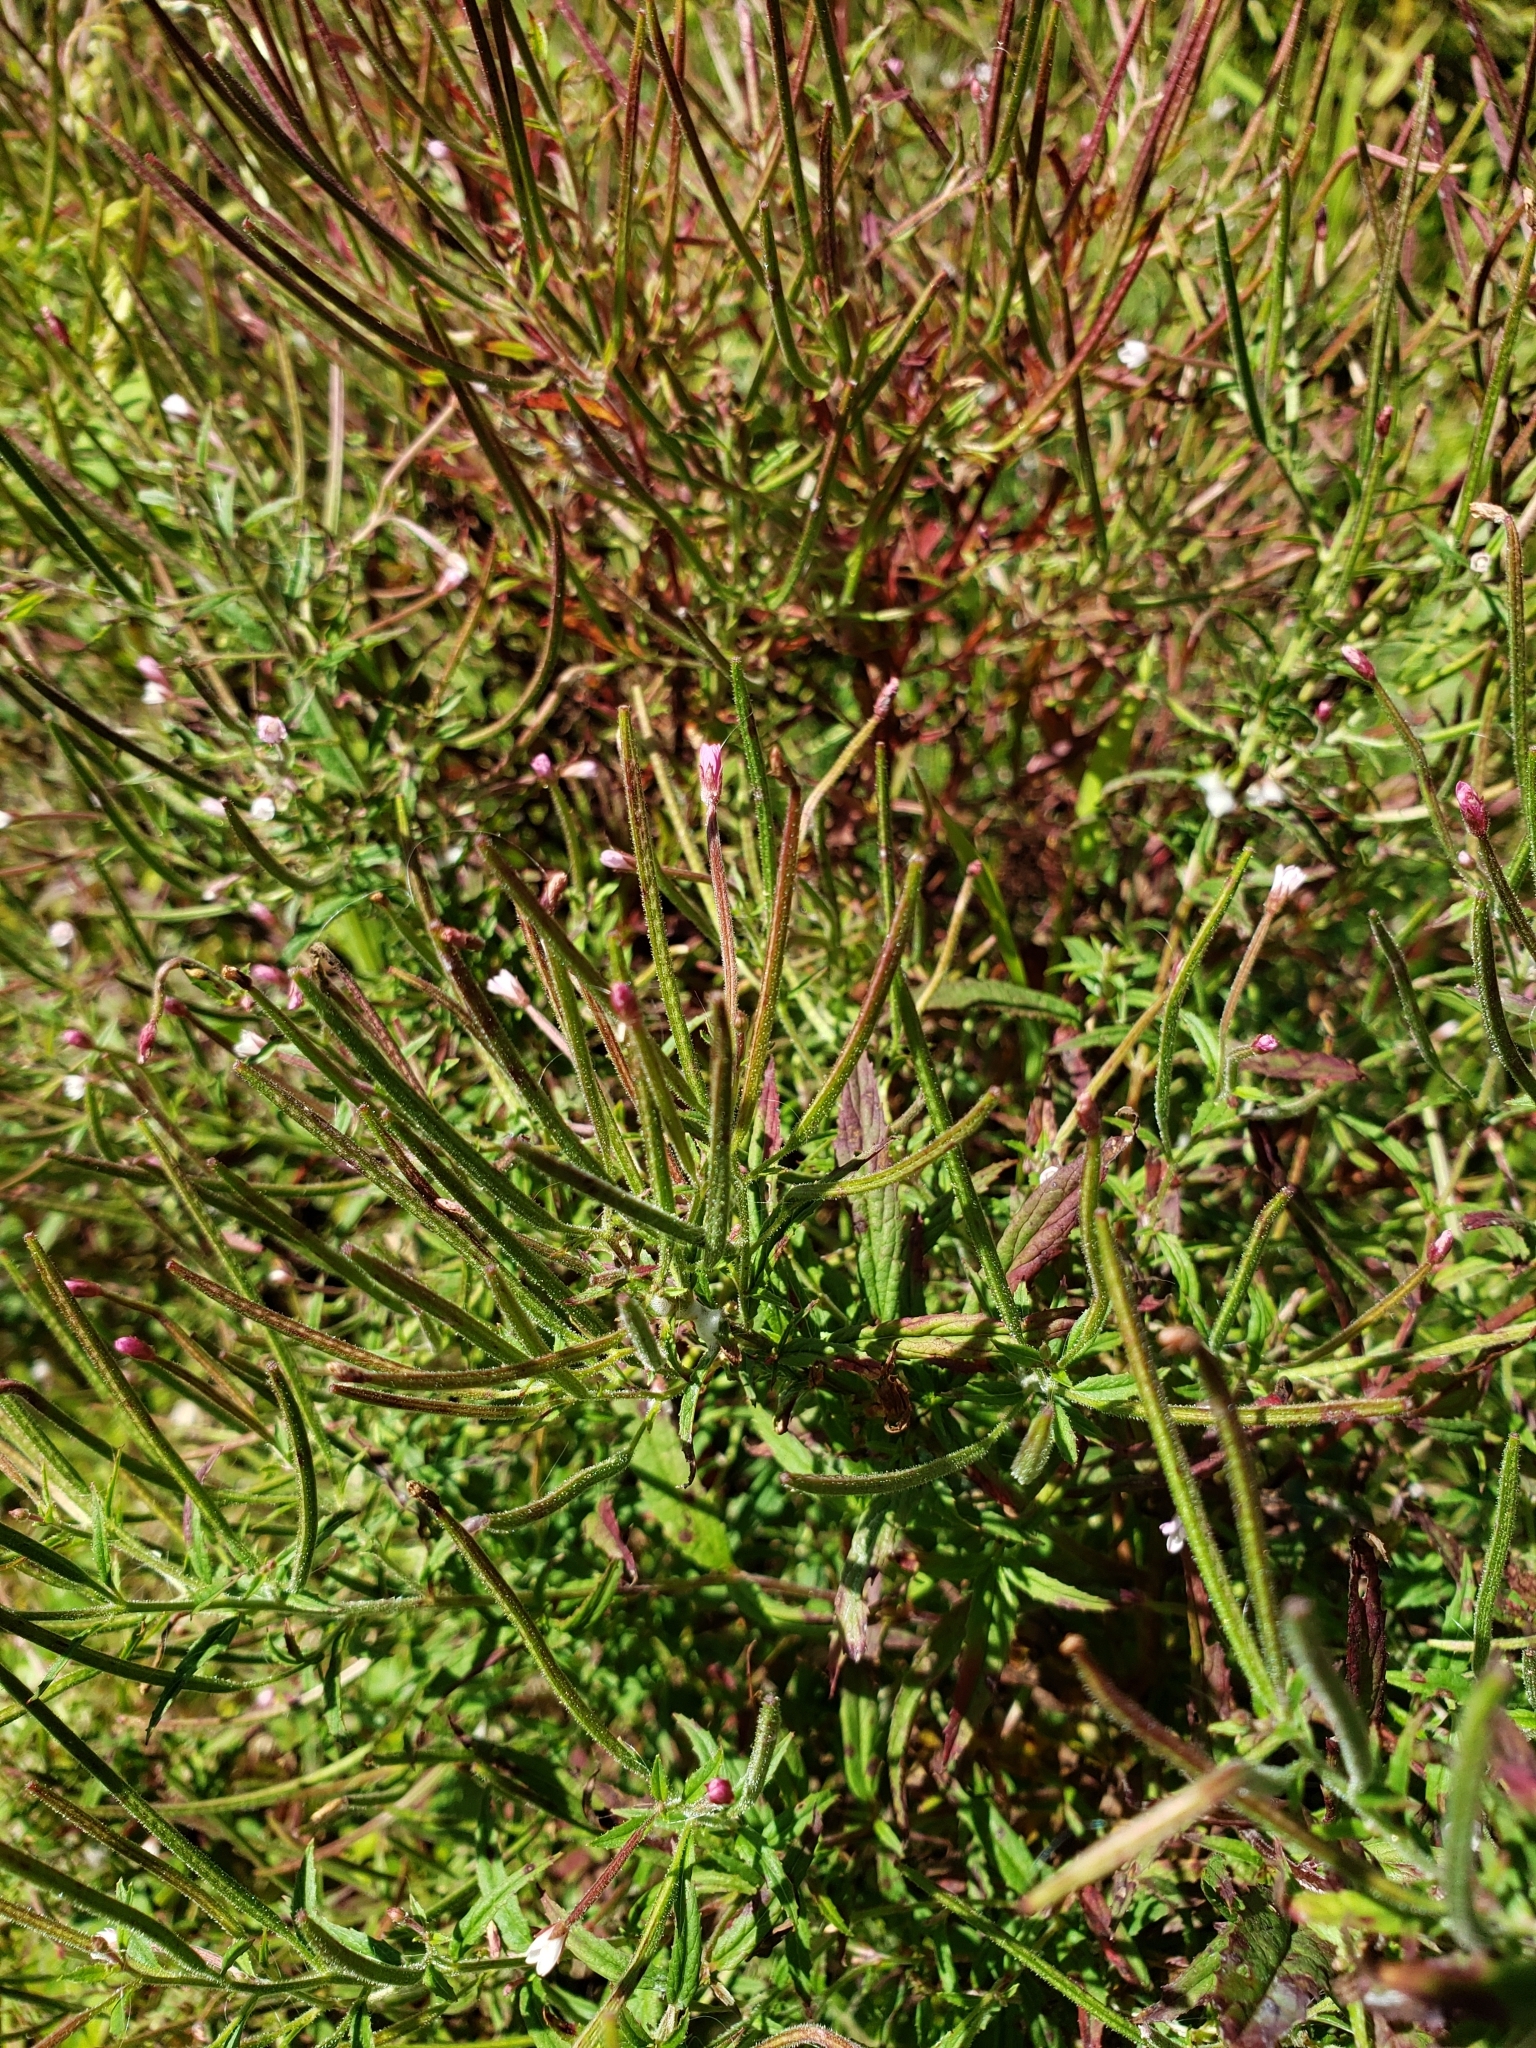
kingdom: Plantae
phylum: Tracheophyta
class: Magnoliopsida
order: Myrtales
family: Onagraceae
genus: Epilobium
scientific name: Epilobium coloratum
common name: Bronze willowherb
